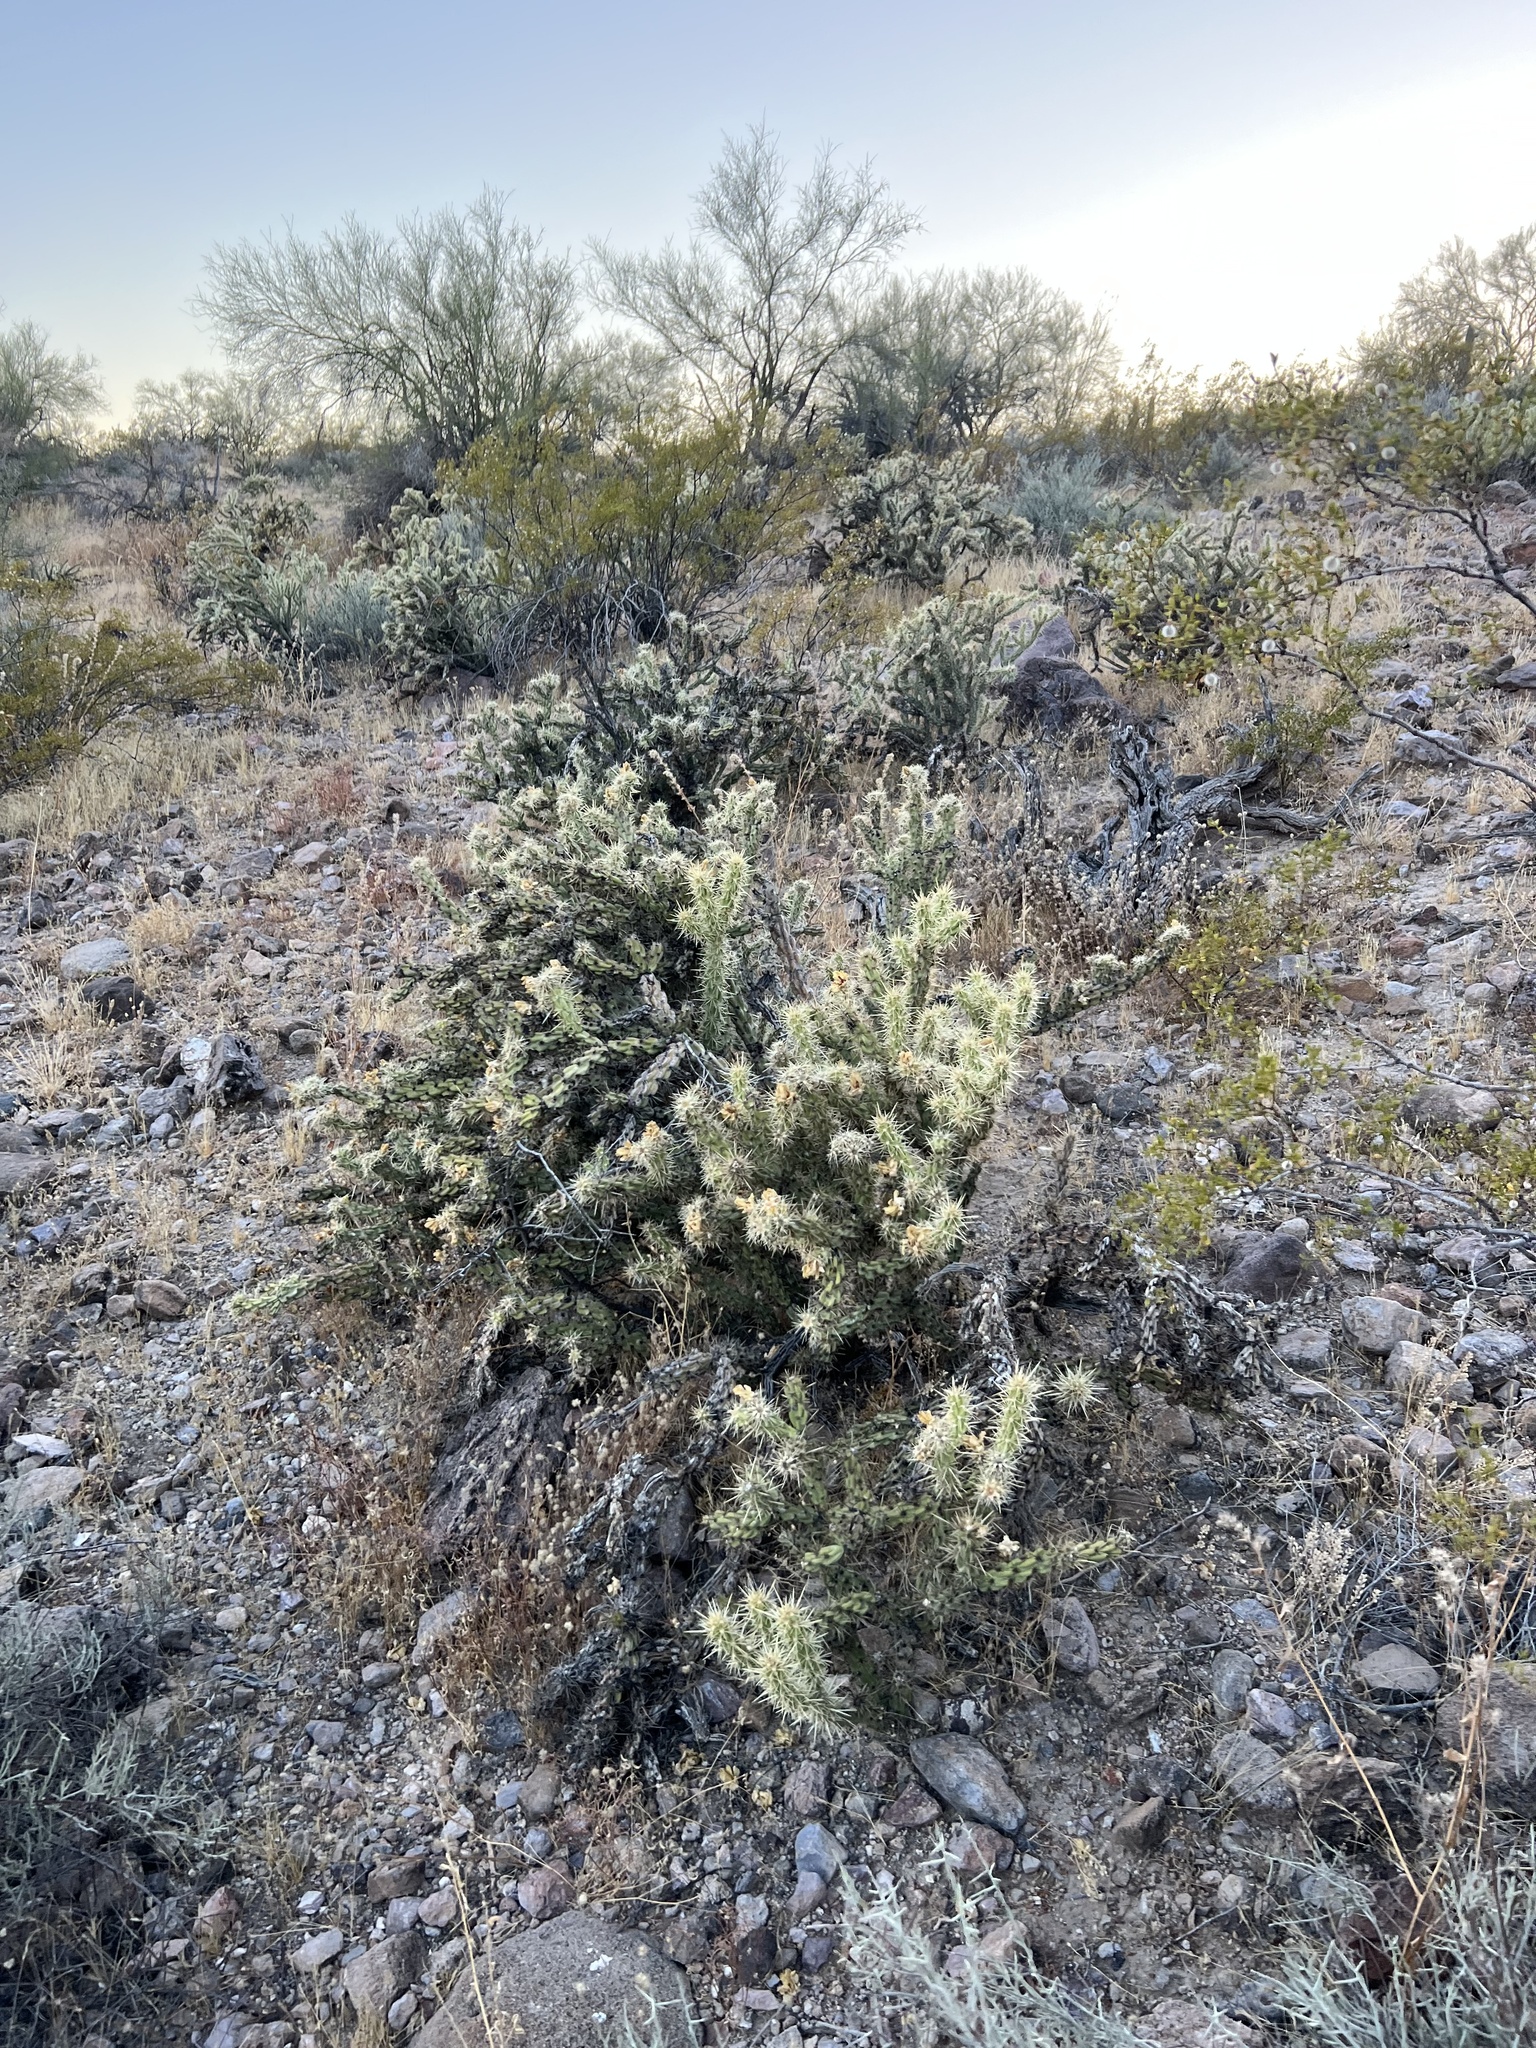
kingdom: Plantae
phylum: Tracheophyta
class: Magnoliopsida
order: Caryophyllales
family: Cactaceae
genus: Cylindropuntia
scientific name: Cylindropuntia acanthocarpa
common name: Buckhorn cholla
